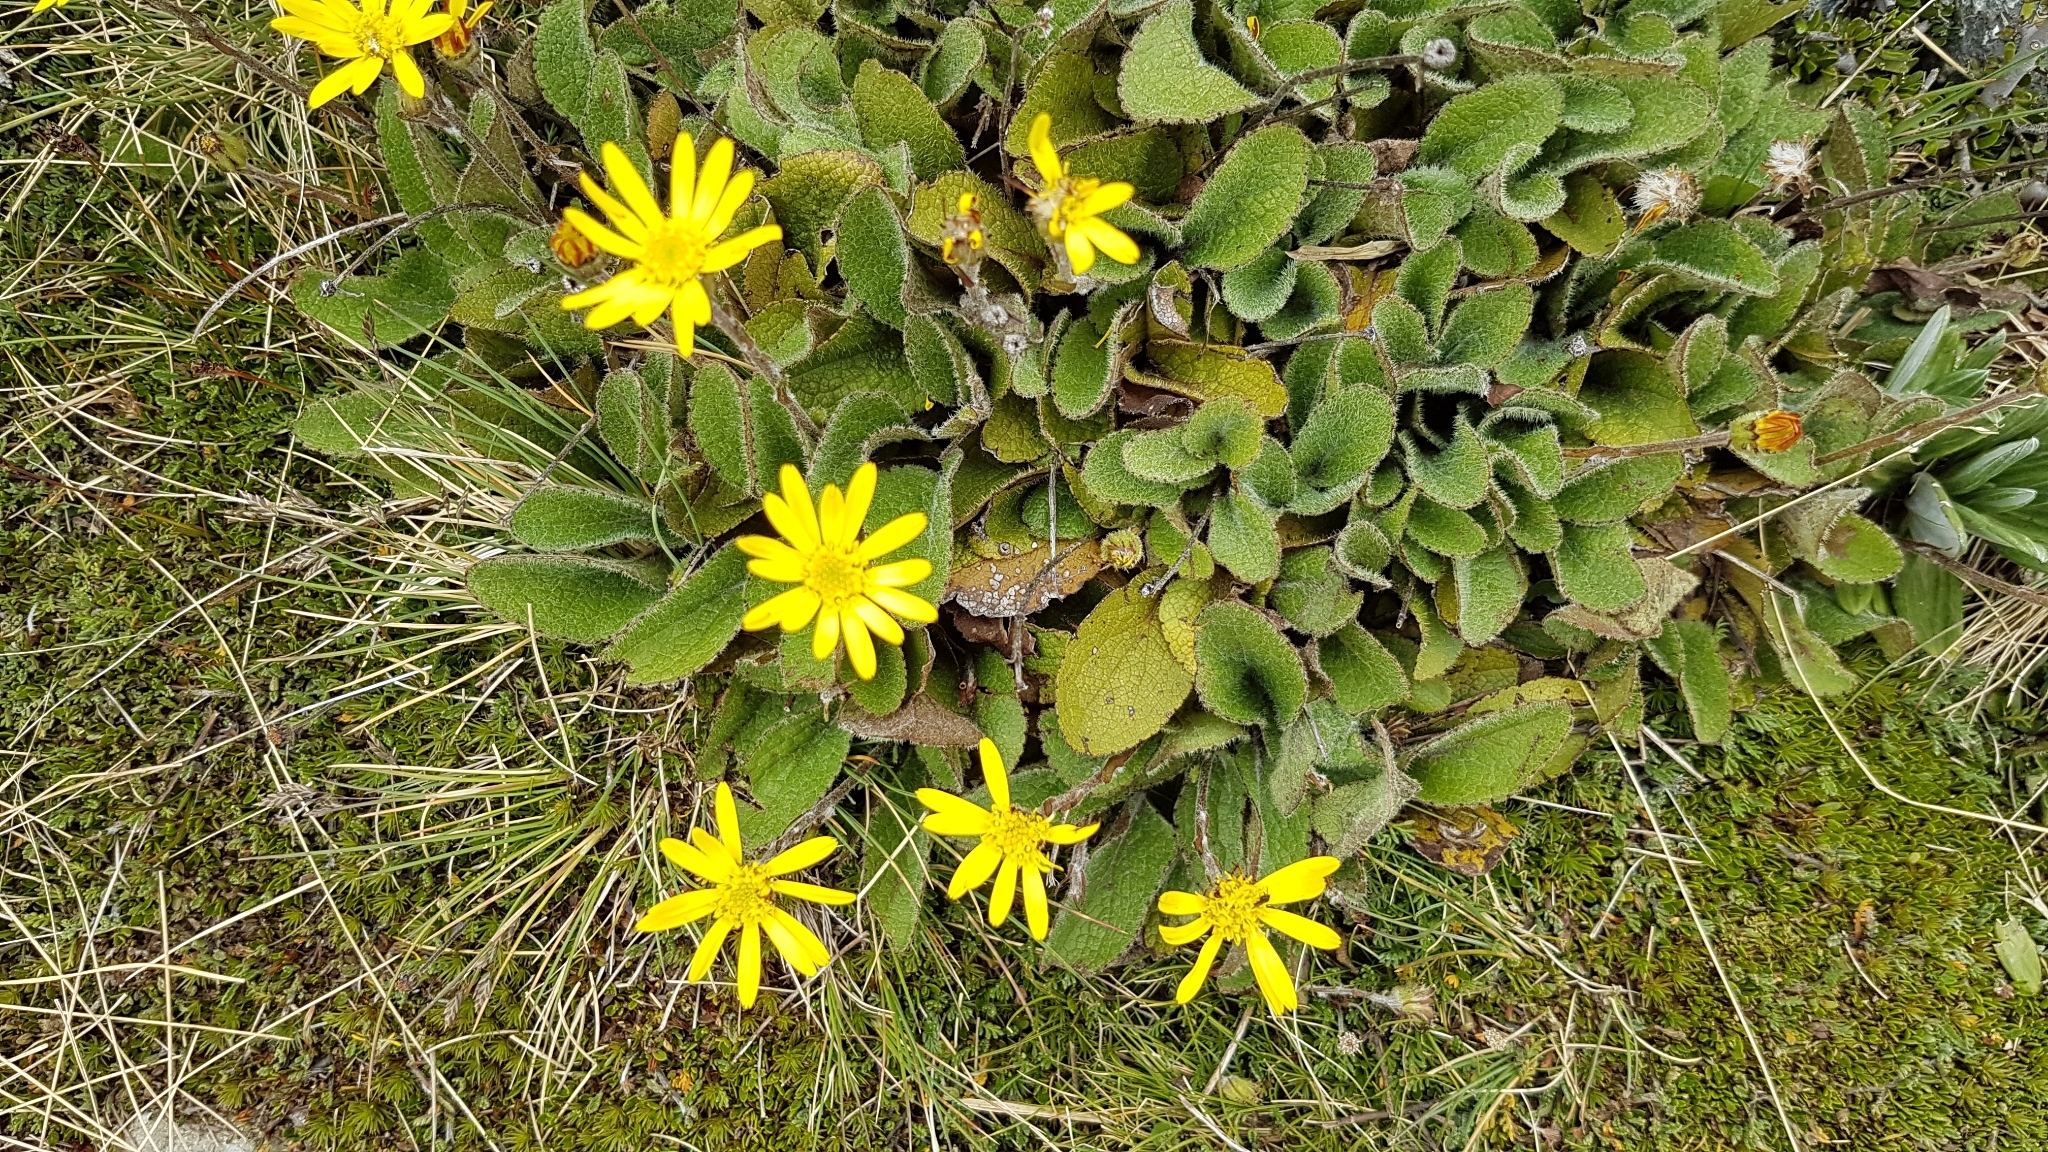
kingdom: Plantae
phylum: Tracheophyta
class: Magnoliopsida
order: Asterales
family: Asteraceae
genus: Brachyglottis
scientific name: Brachyglottis bellidioides
